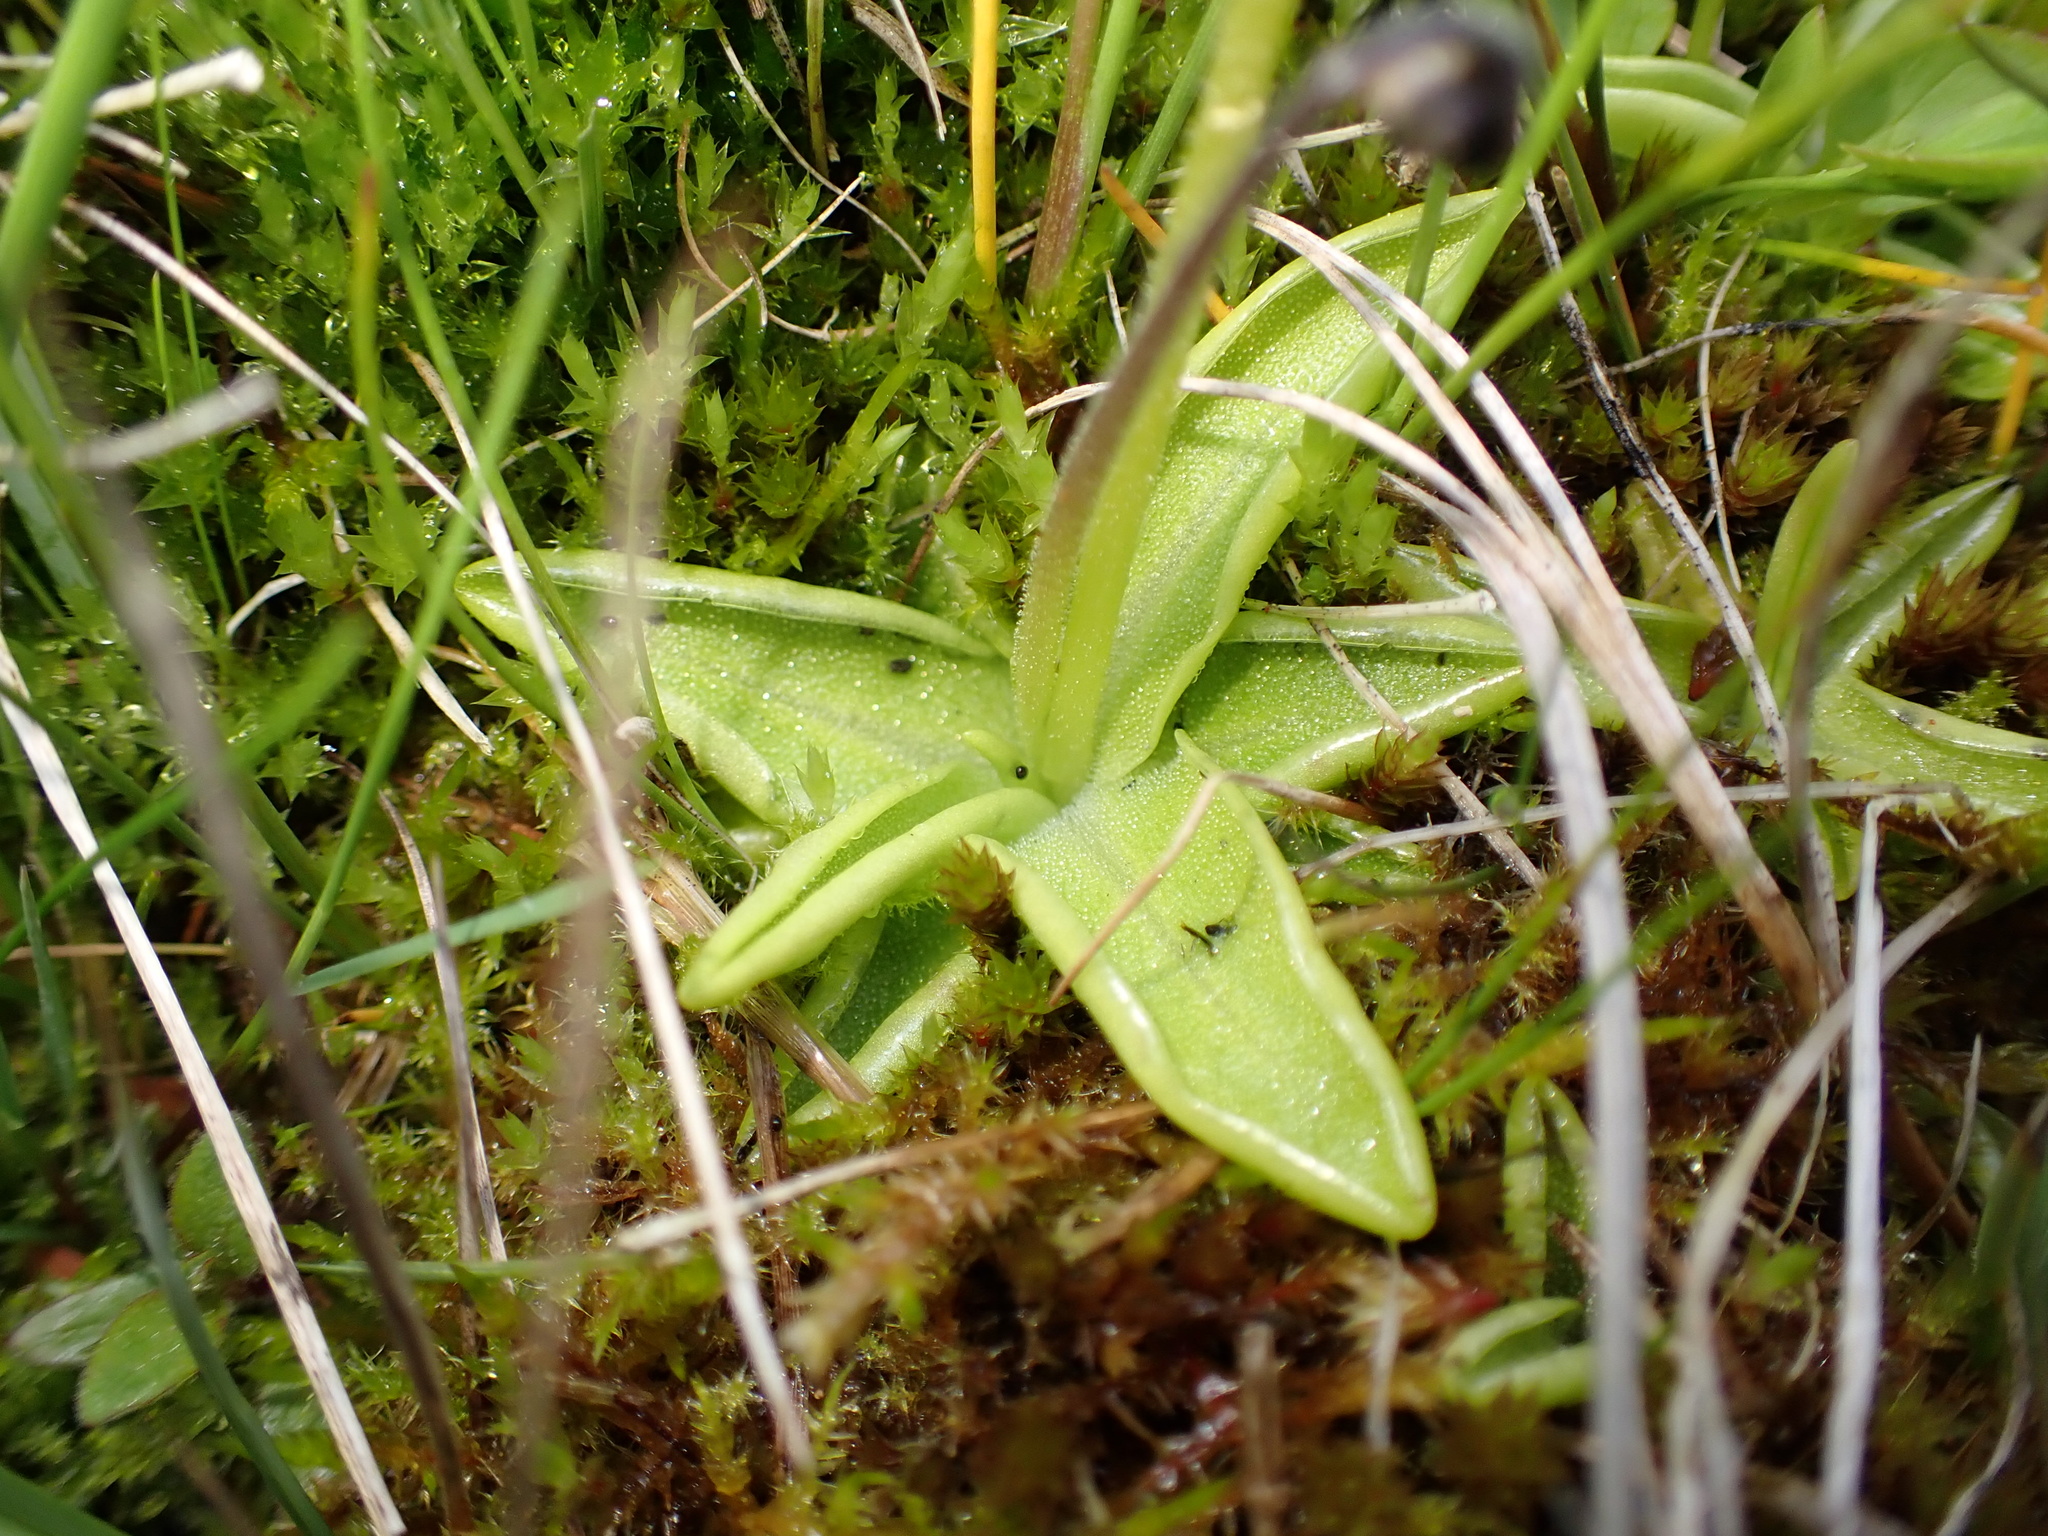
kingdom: Plantae
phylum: Tracheophyta
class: Magnoliopsida
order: Lamiales
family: Lentibulariaceae
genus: Pinguicula
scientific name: Pinguicula vulgaris
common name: Common butterwort
